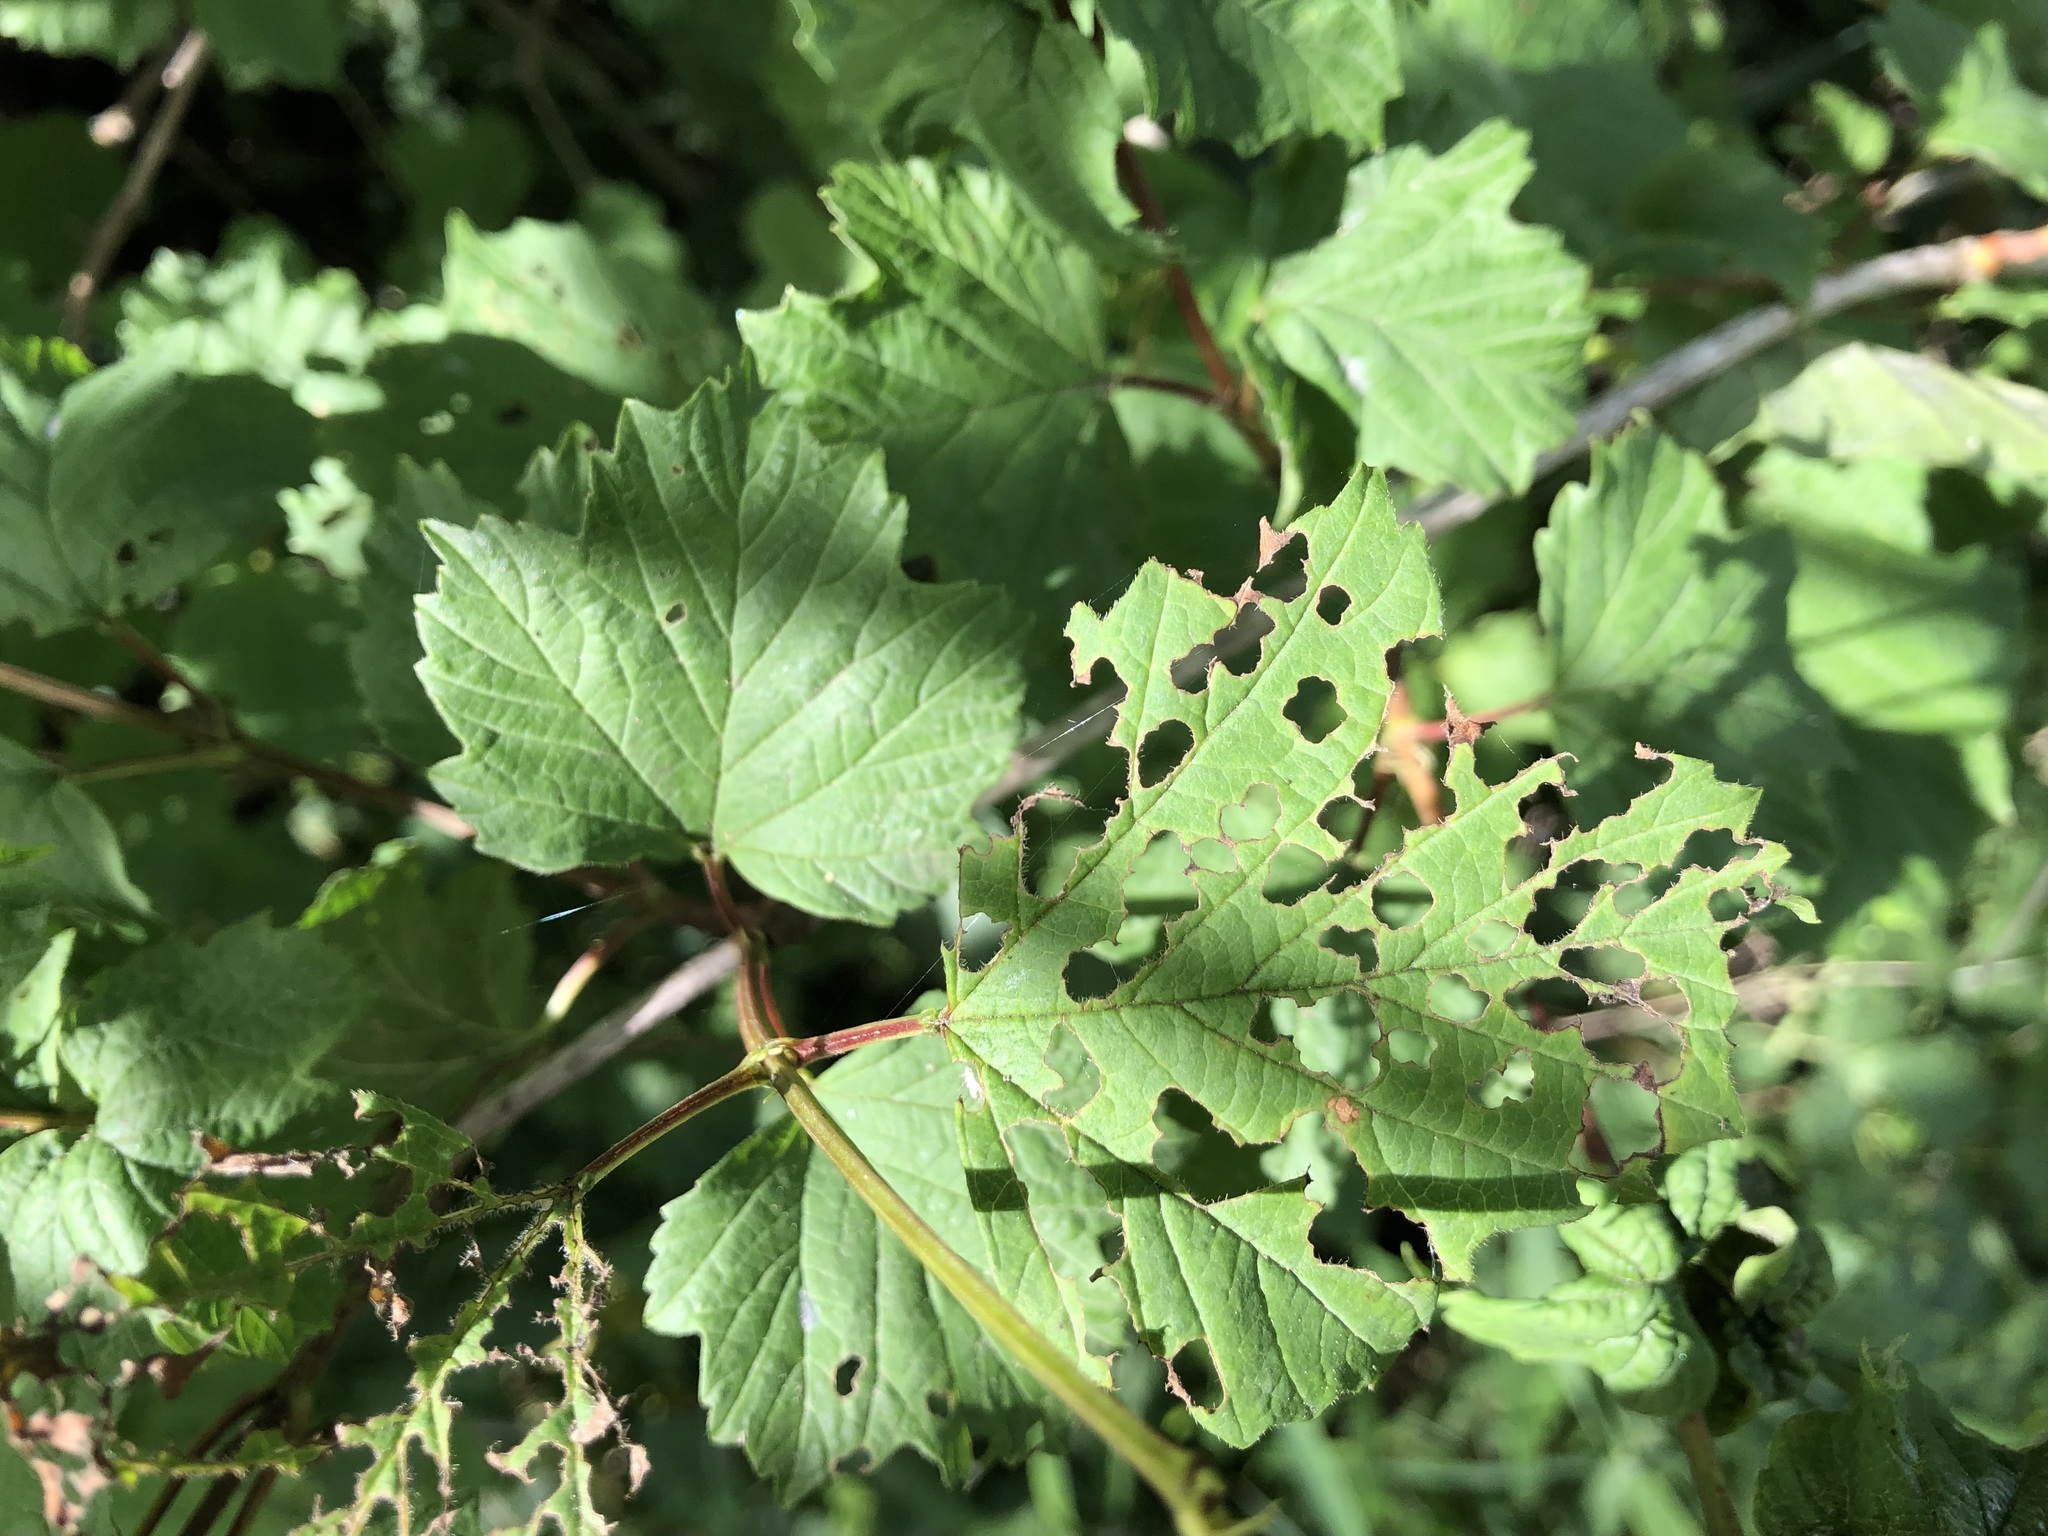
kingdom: Plantae
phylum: Tracheophyta
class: Magnoliopsida
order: Dipsacales
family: Viburnaceae
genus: Viburnum
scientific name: Viburnum opulus
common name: Guelder-rose
